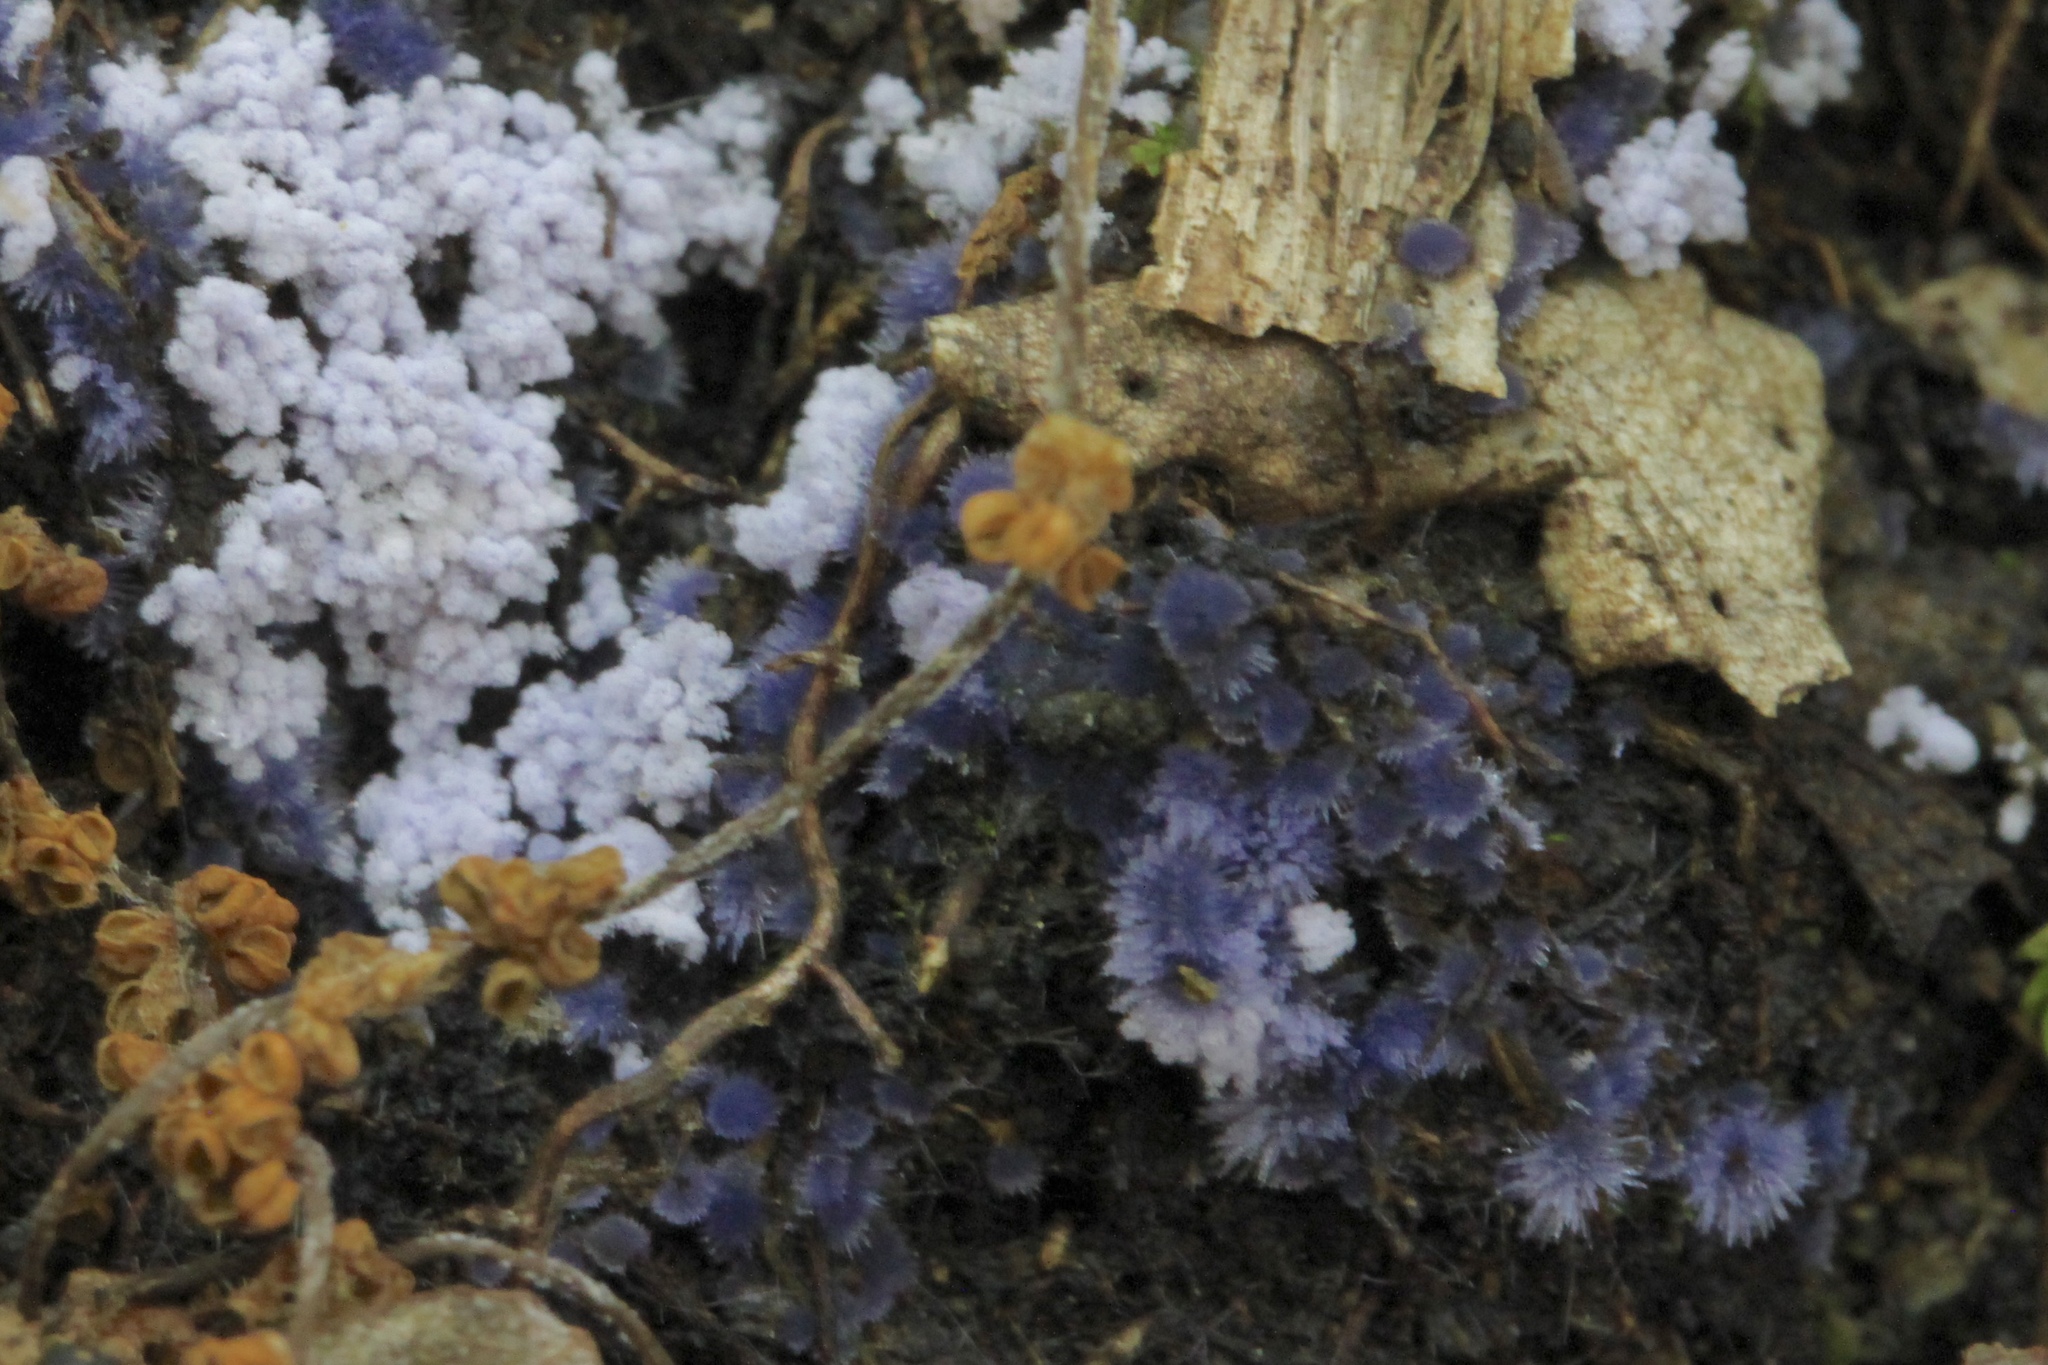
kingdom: Fungi
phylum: Ascomycota
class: Pezizomycetes
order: Pezizales
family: Pezizaceae
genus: Chromelosporiopsis
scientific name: Chromelosporiopsis coerulescens
